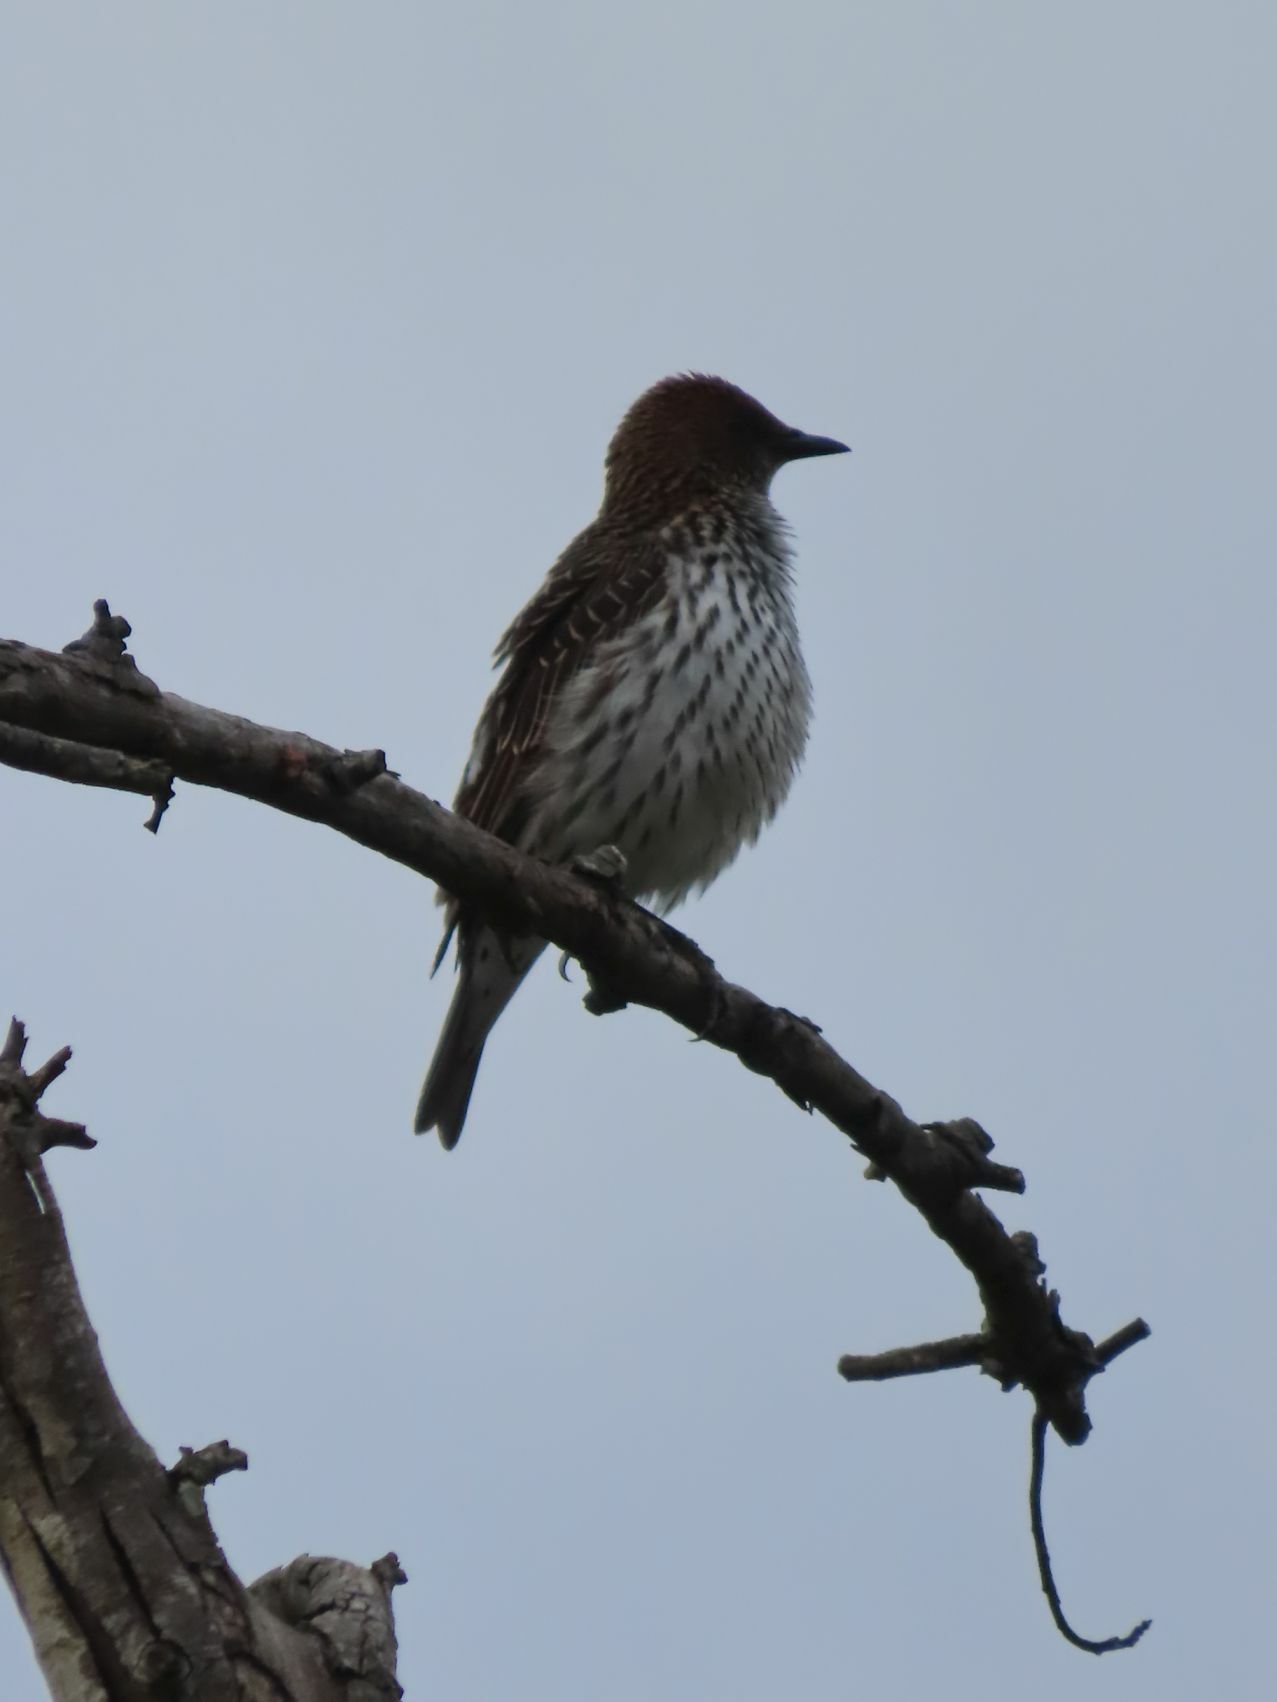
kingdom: Animalia
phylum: Chordata
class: Aves
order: Passeriformes
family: Sturnidae
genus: Cinnyricinclus
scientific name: Cinnyricinclus leucogaster
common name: Violet-backed starling
